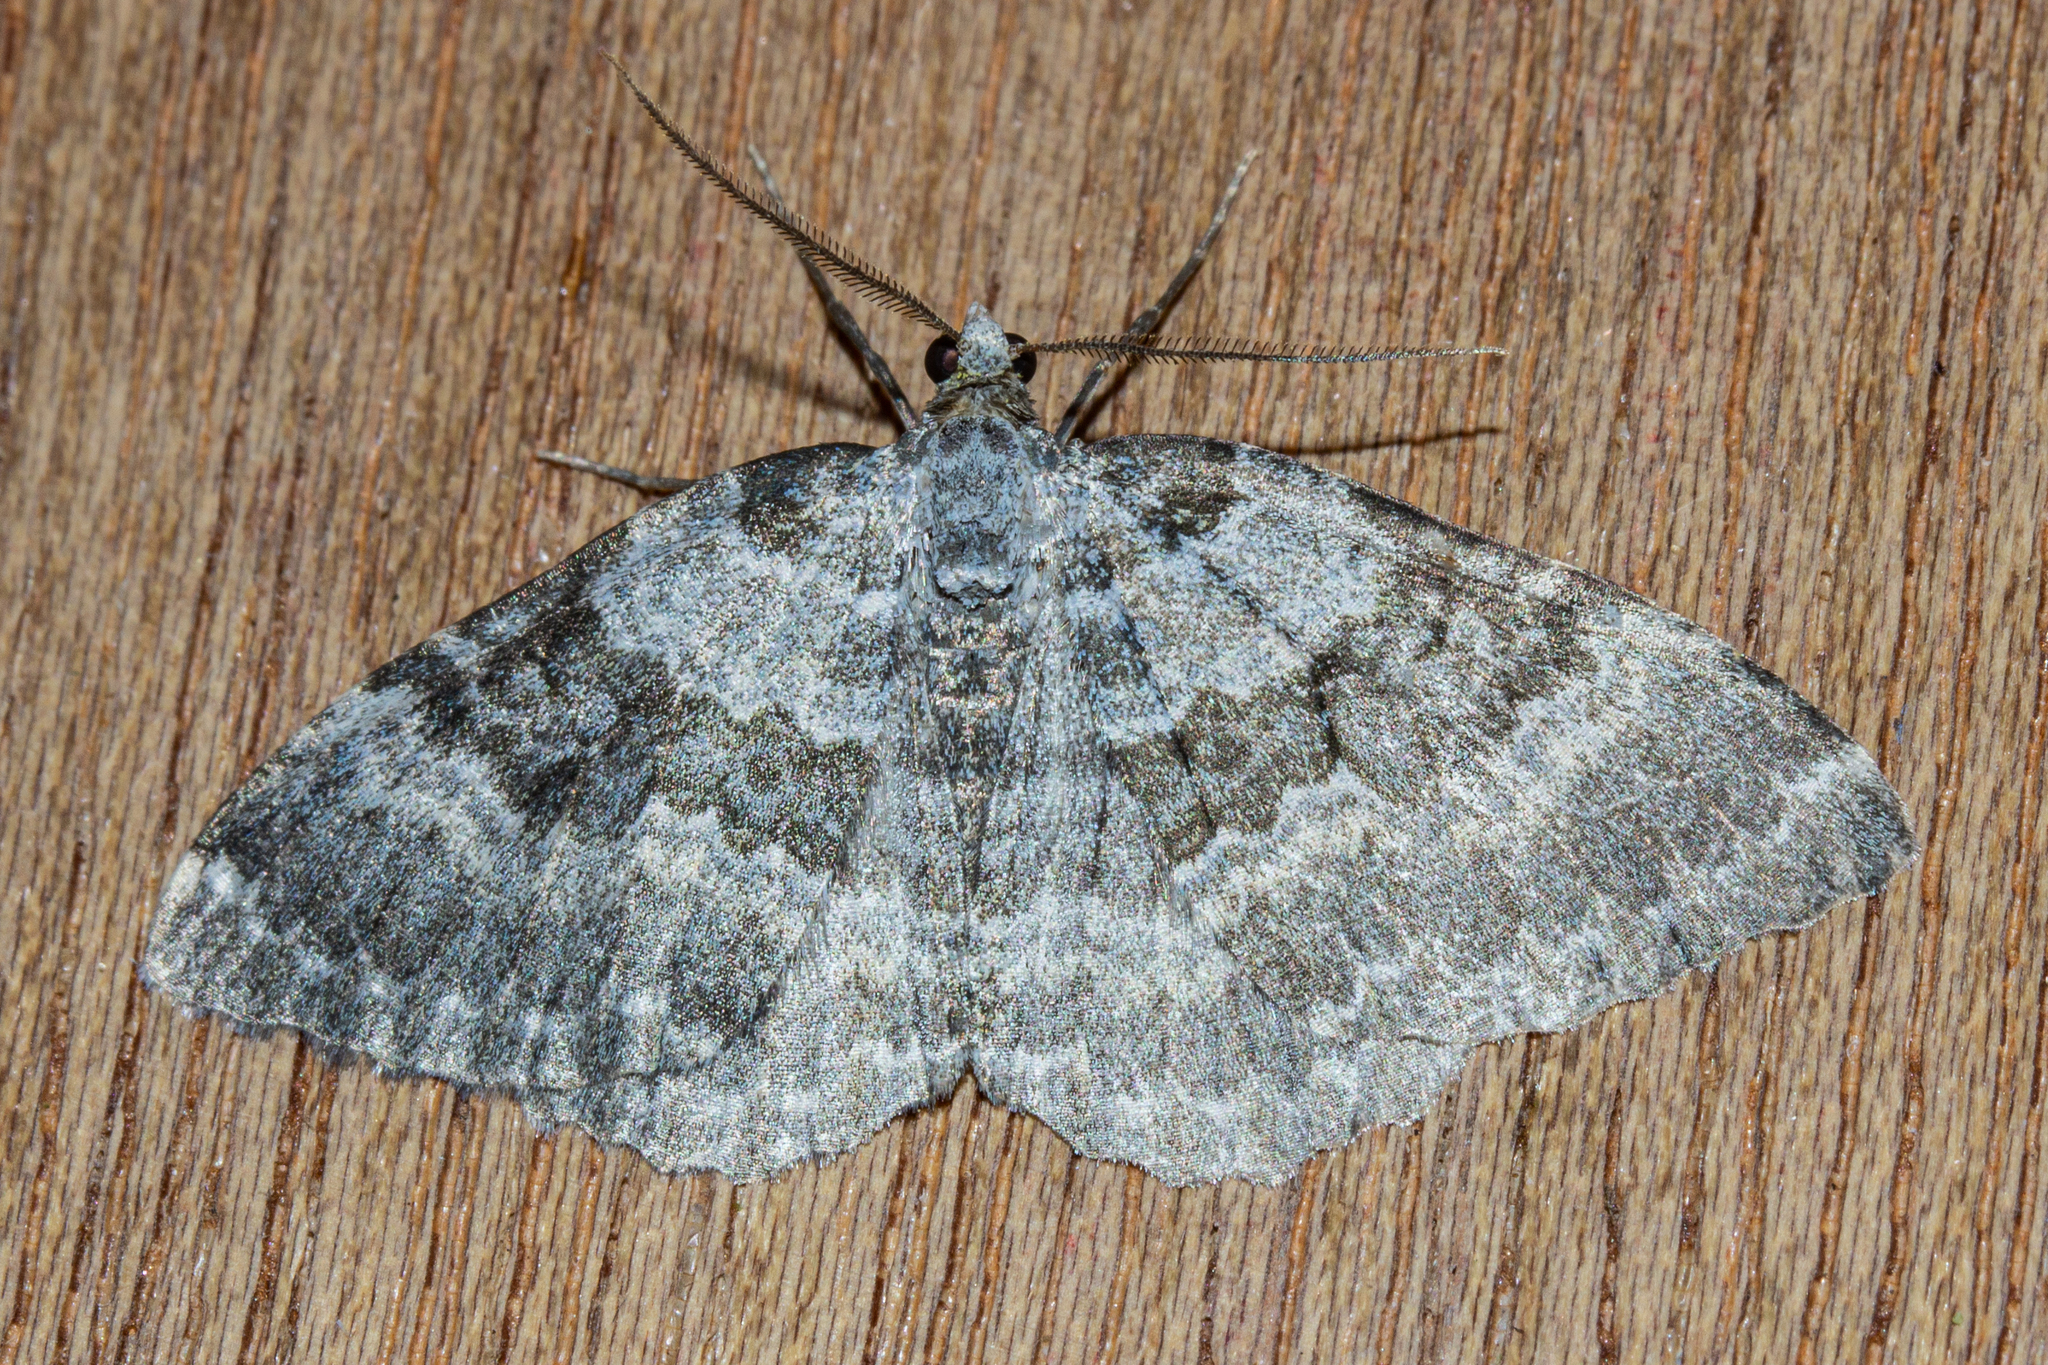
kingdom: Animalia
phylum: Arthropoda
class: Insecta
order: Lepidoptera
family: Geometridae
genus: Gingidiobora
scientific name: Gingidiobora subobscurata
